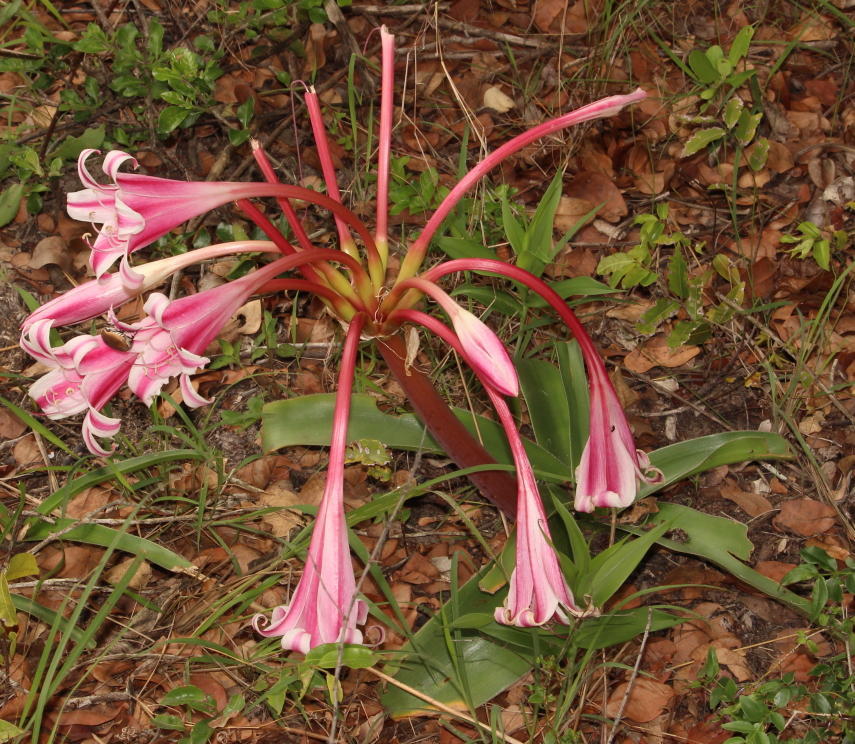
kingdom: Plantae
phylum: Tracheophyta
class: Liliopsida
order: Asparagales
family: Amaryllidaceae
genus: Crinum
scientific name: Crinum stuhlmannii
